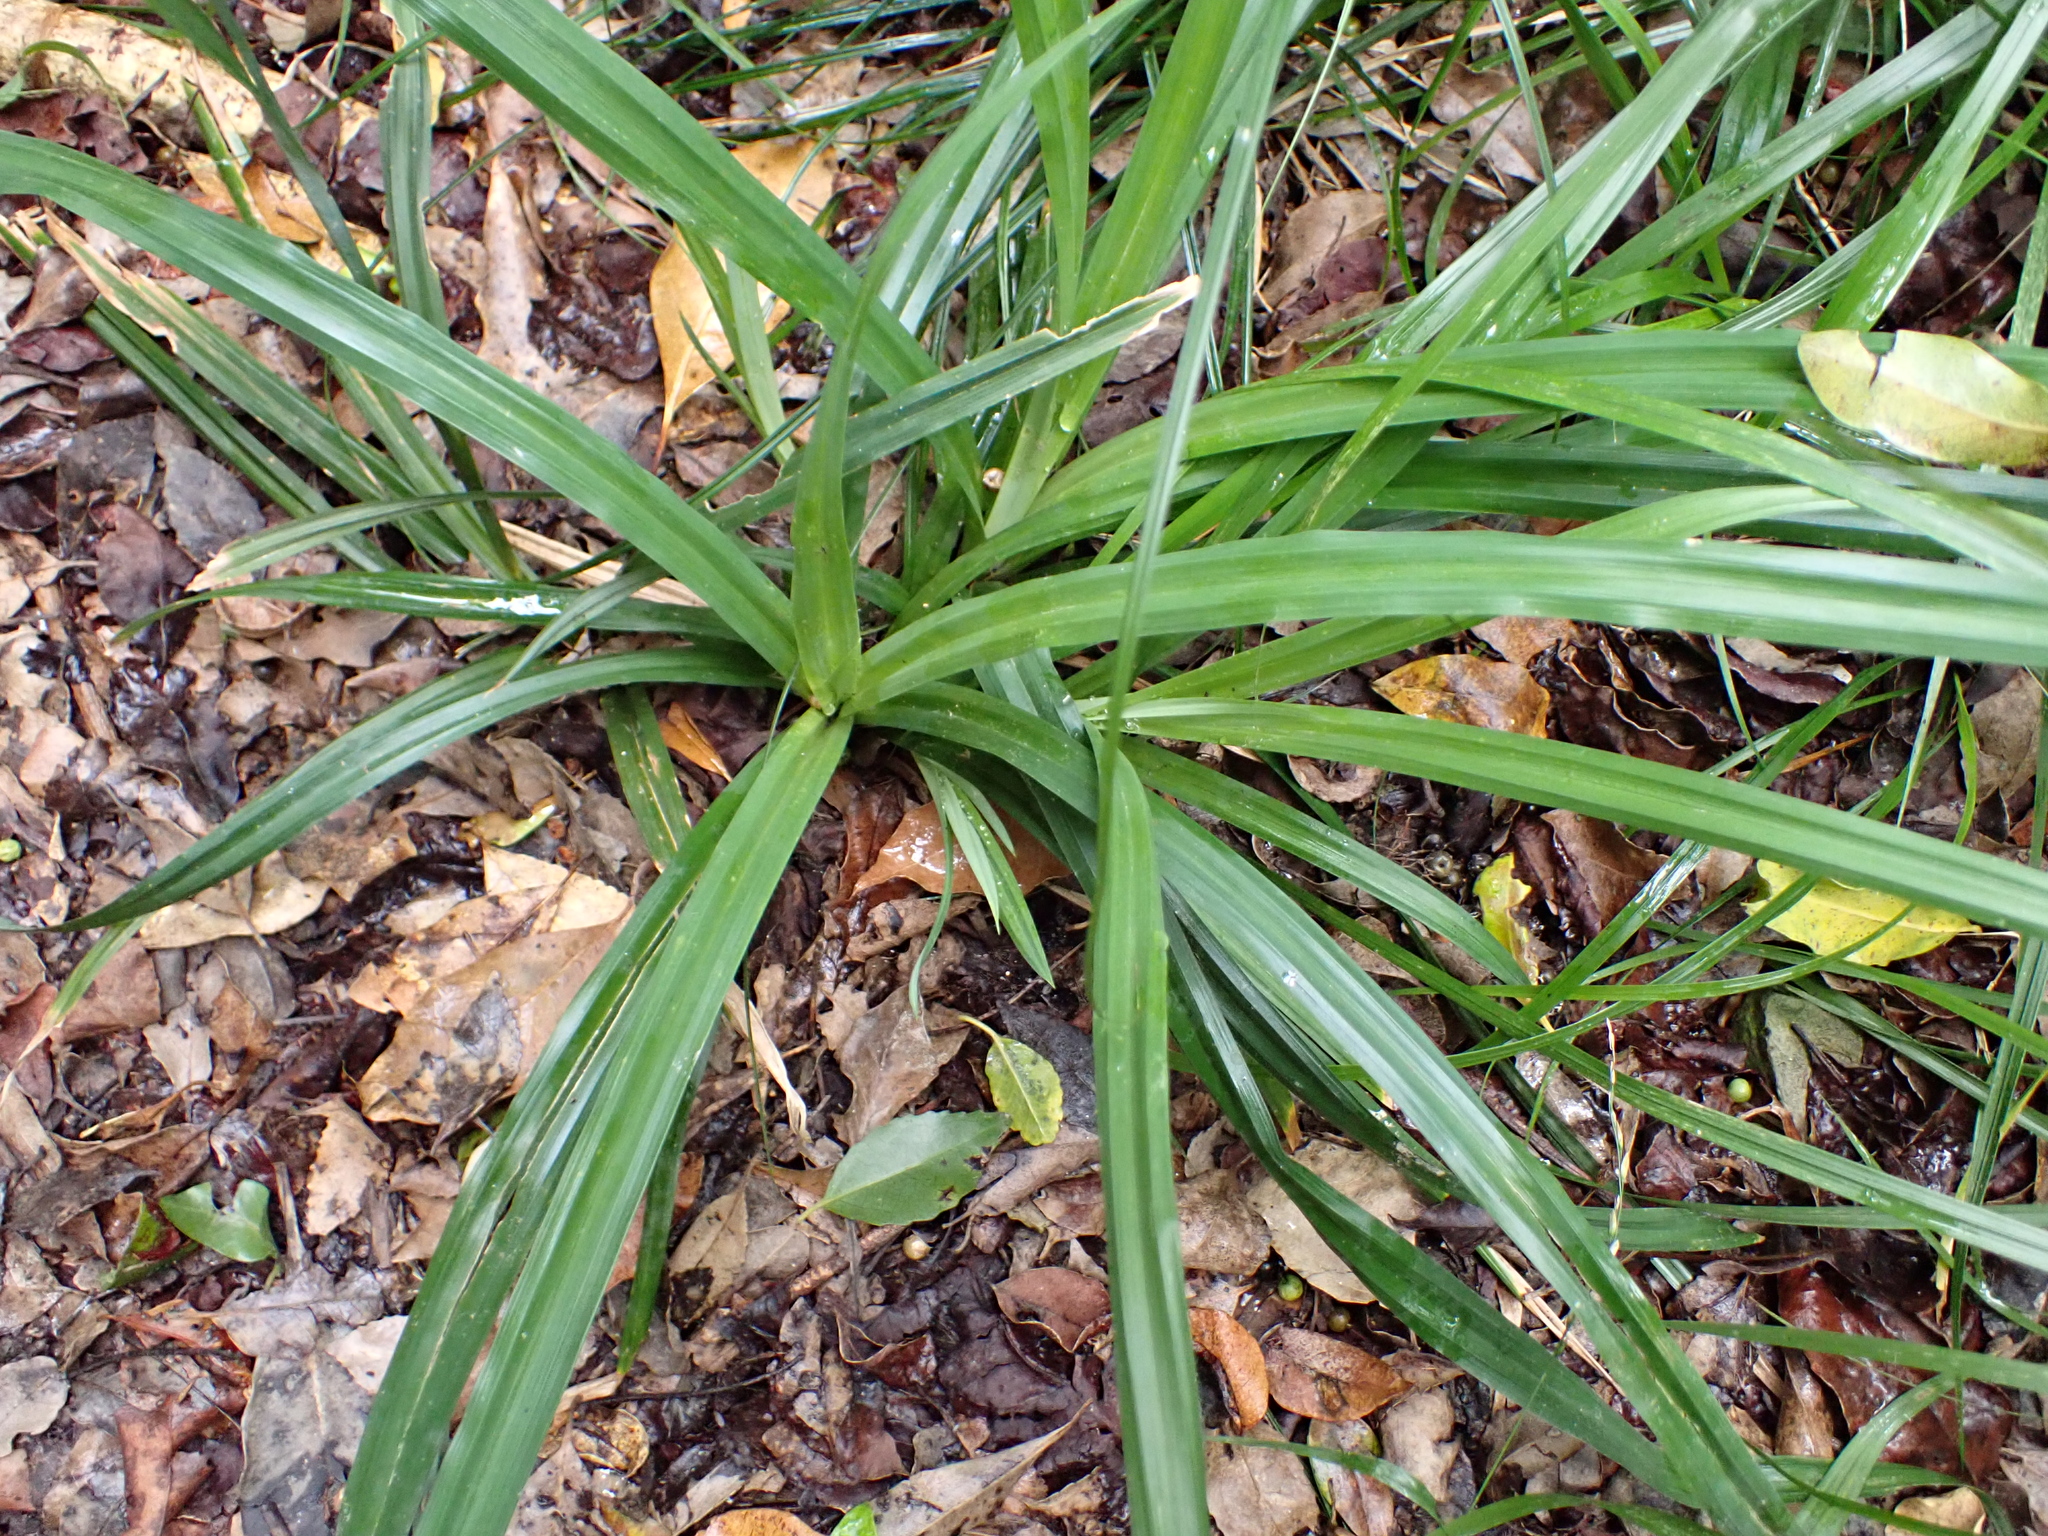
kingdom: Plantae
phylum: Tracheophyta
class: Liliopsida
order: Poales
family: Cyperaceae
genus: Cyperus
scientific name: Cyperus albostriatus
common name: Dwarf umbrella-grass
